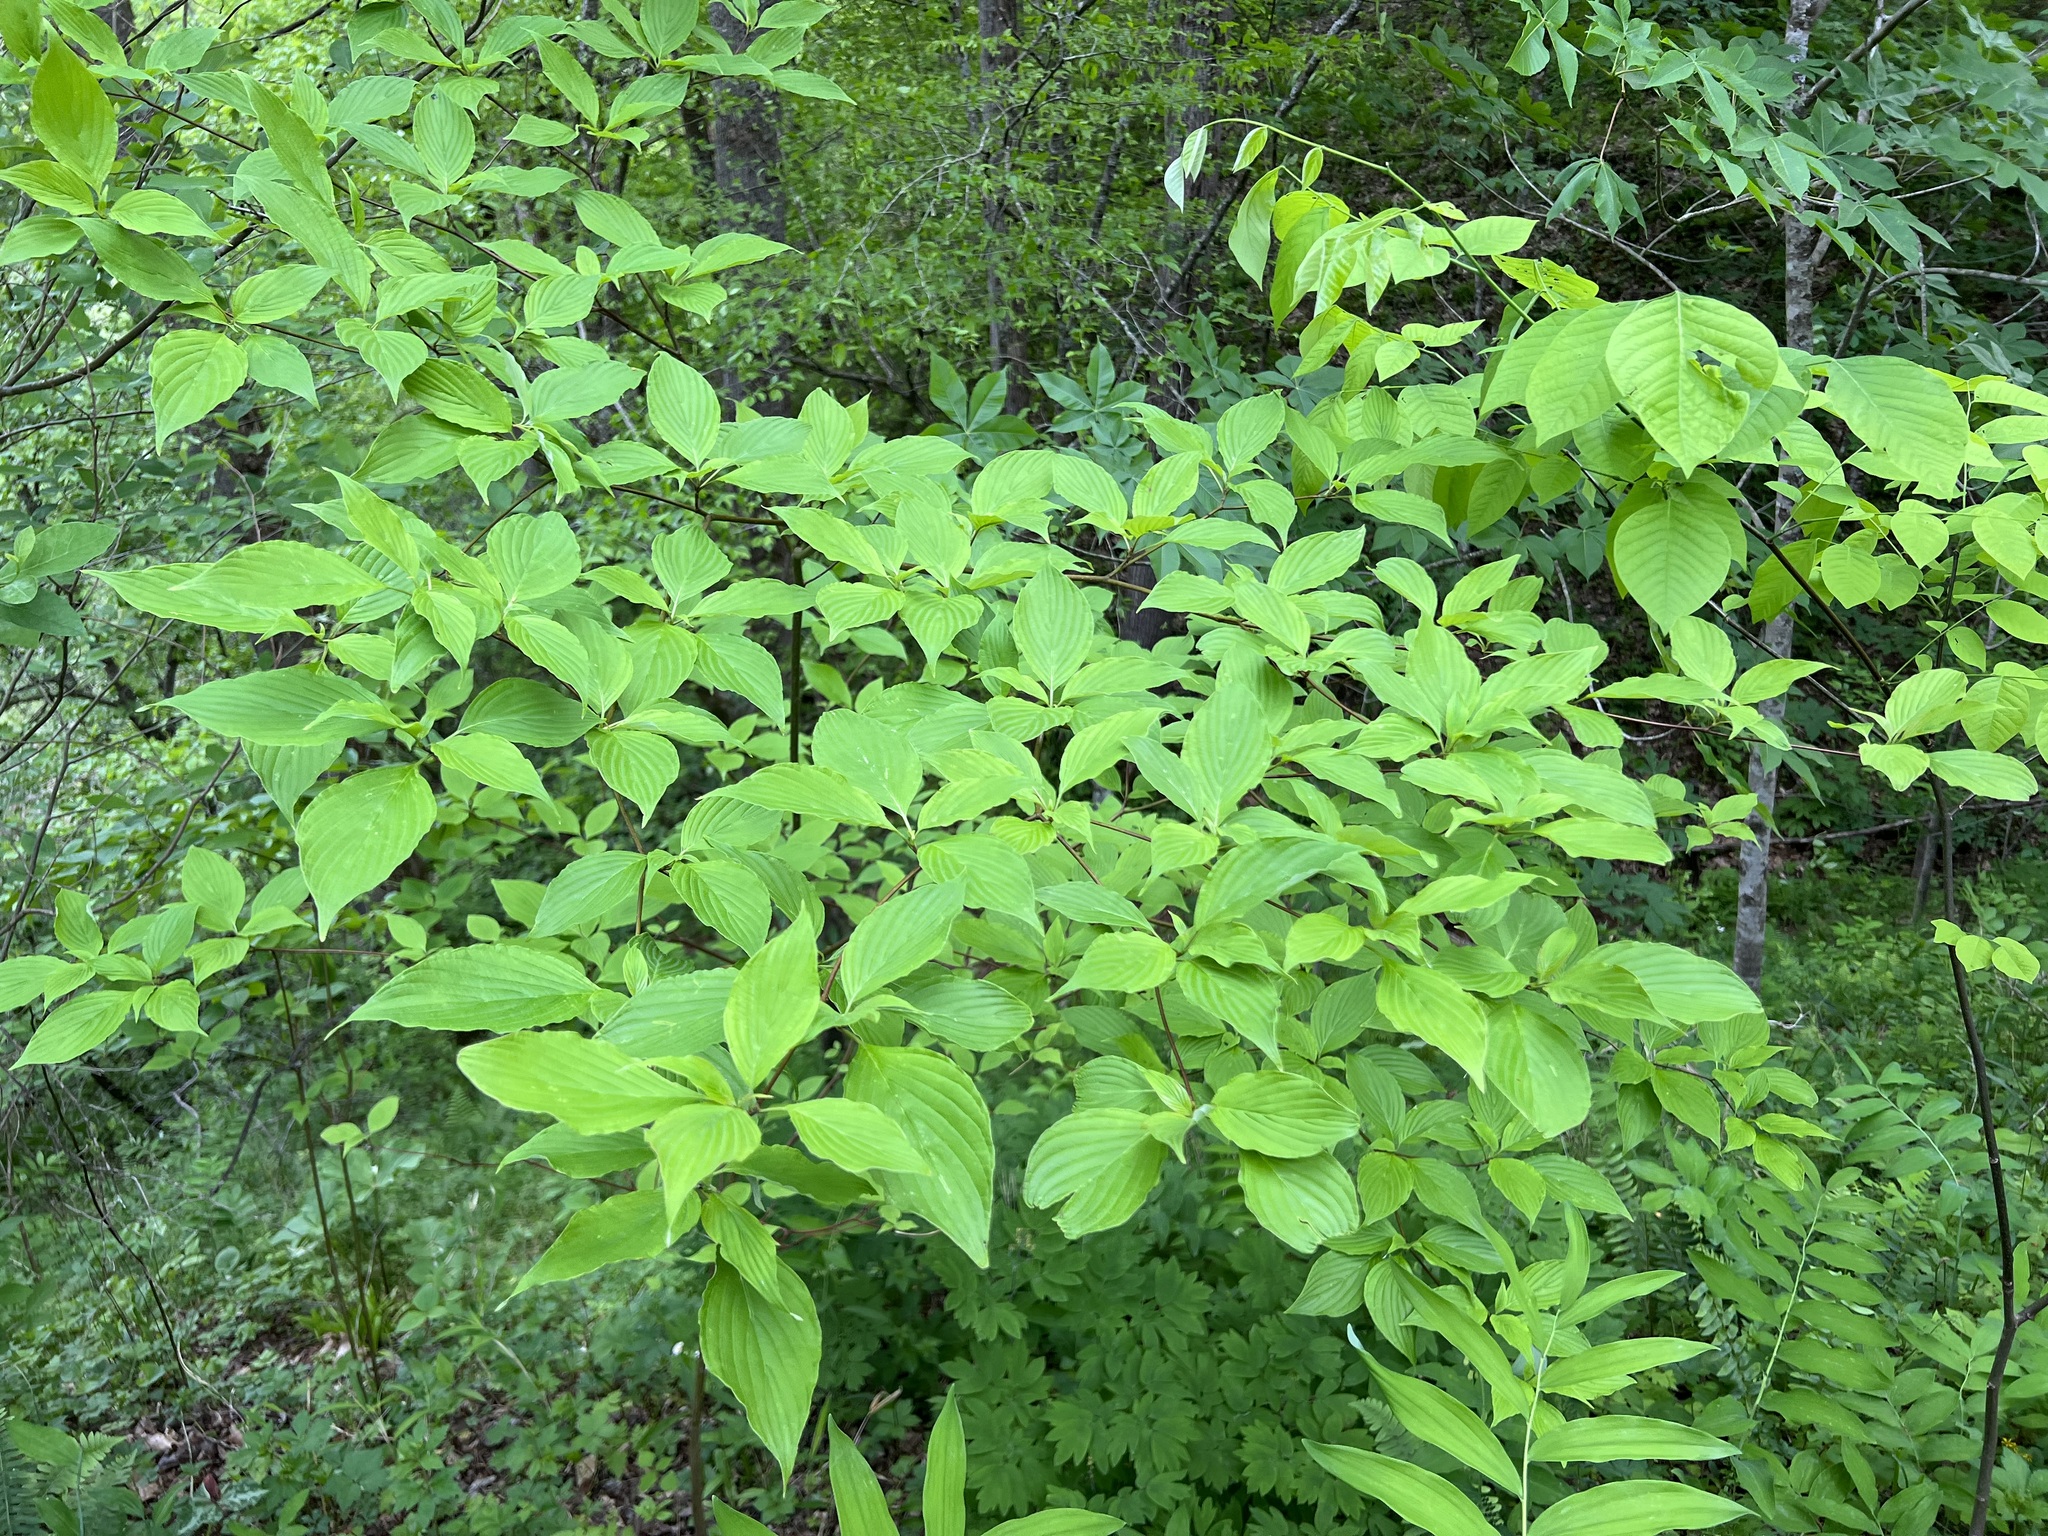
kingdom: Plantae
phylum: Tracheophyta
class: Magnoliopsida
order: Cornales
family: Cornaceae
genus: Cornus
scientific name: Cornus alternifolia
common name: Pagoda dogwood
